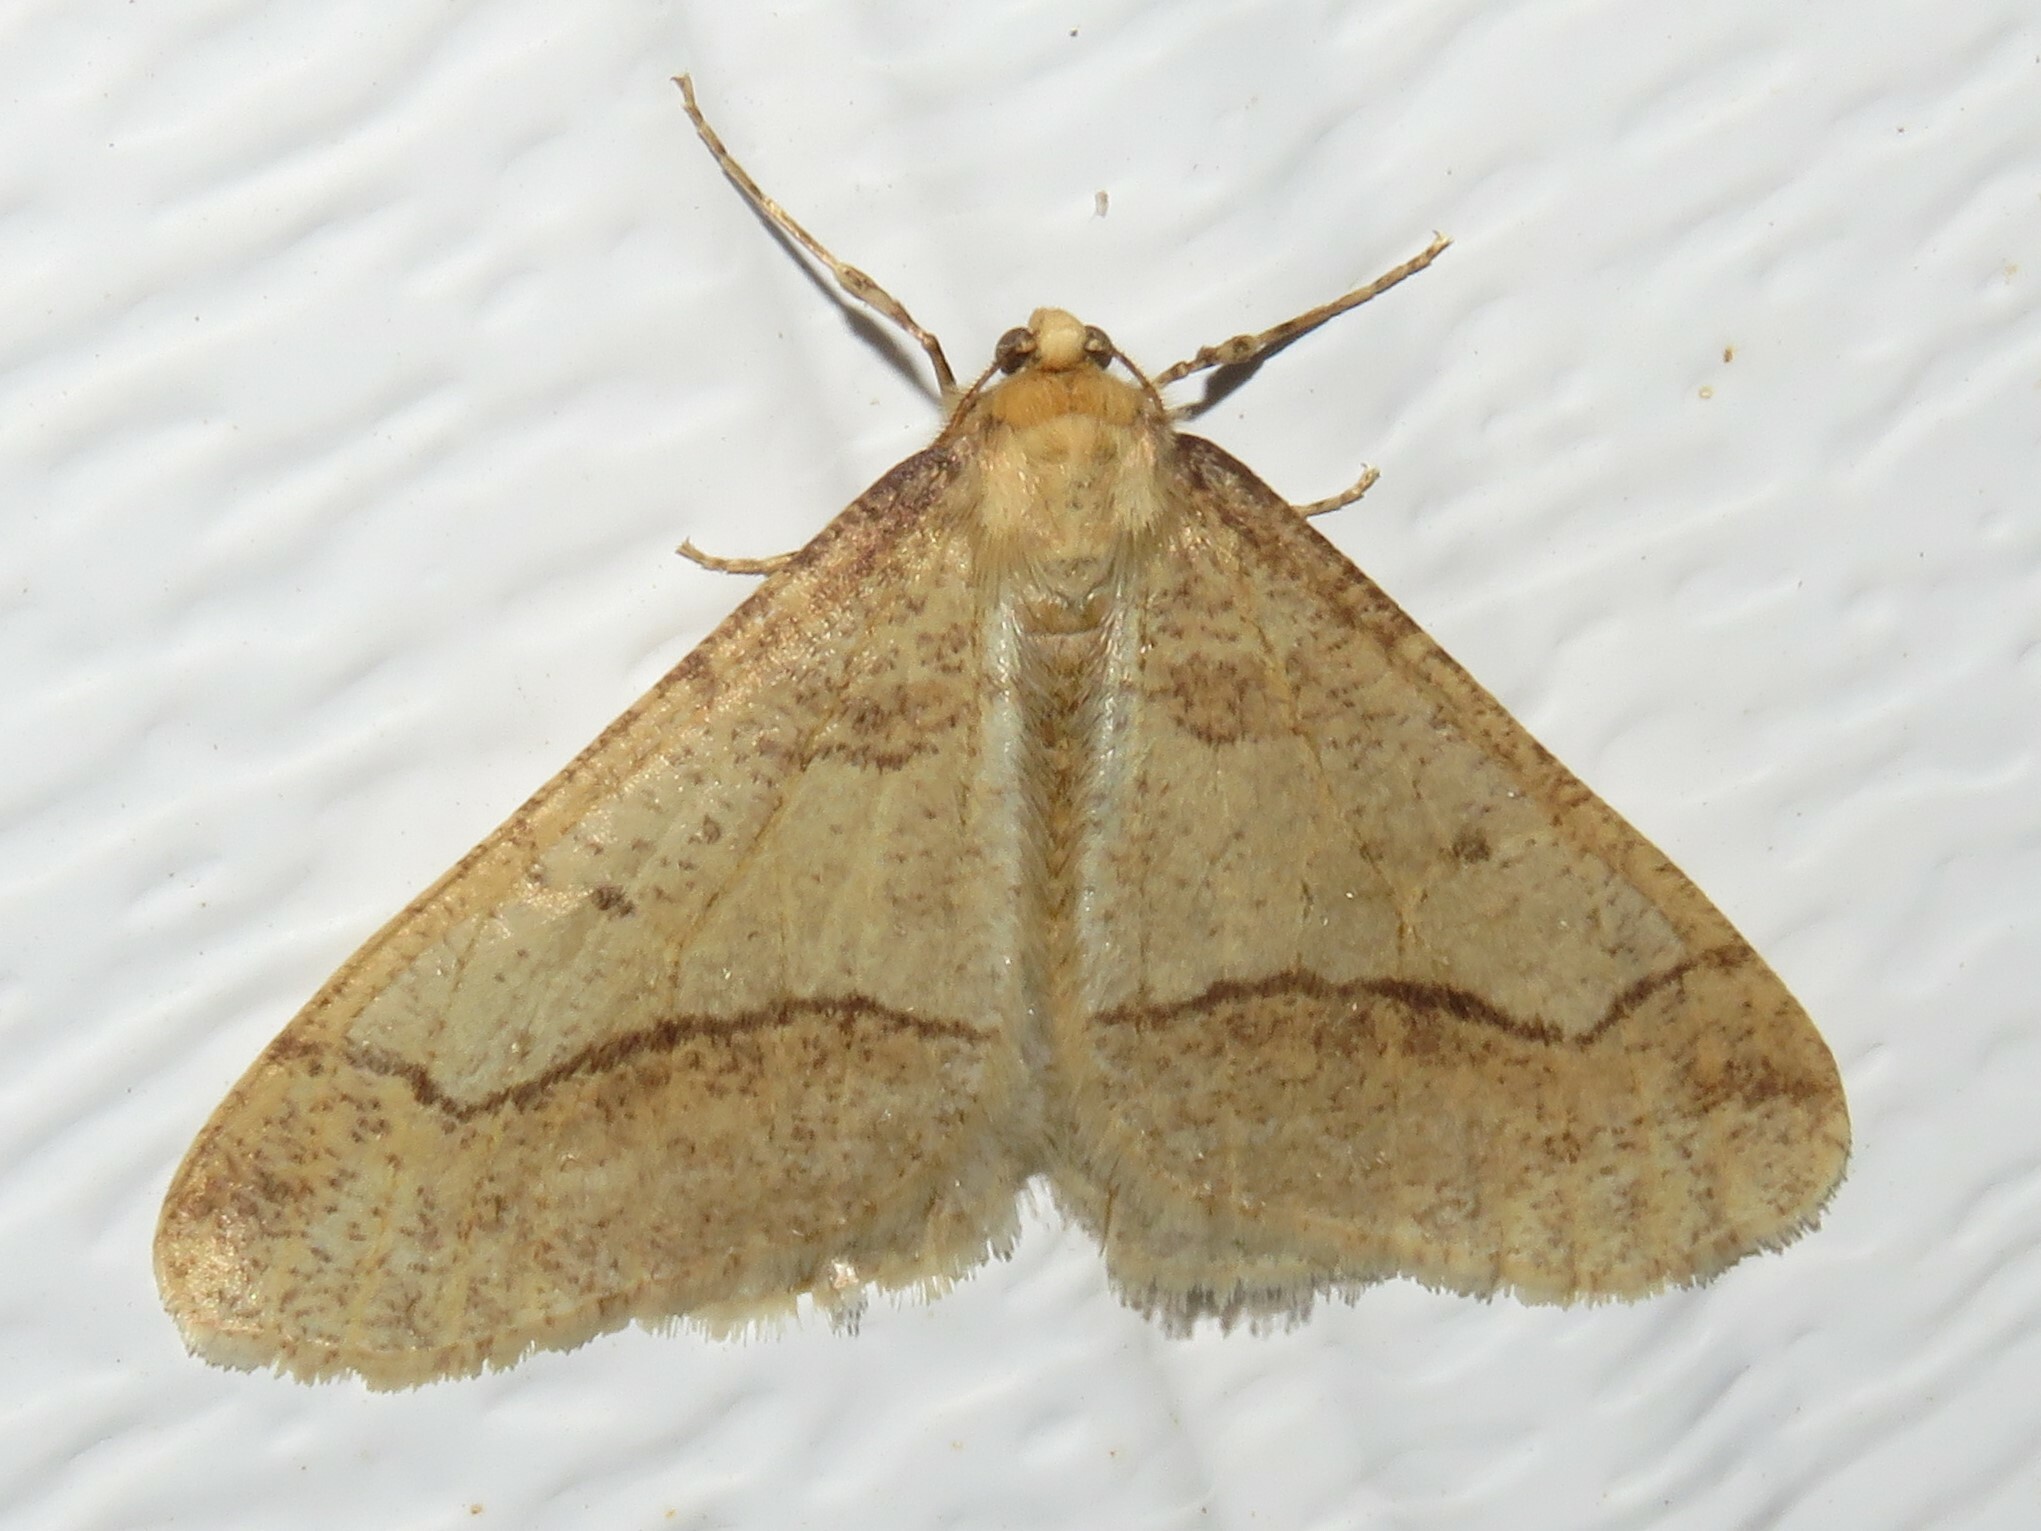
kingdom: Animalia
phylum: Arthropoda
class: Insecta
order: Lepidoptera
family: Geometridae
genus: Erannis
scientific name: Erannis tiliaria
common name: Linden looper
